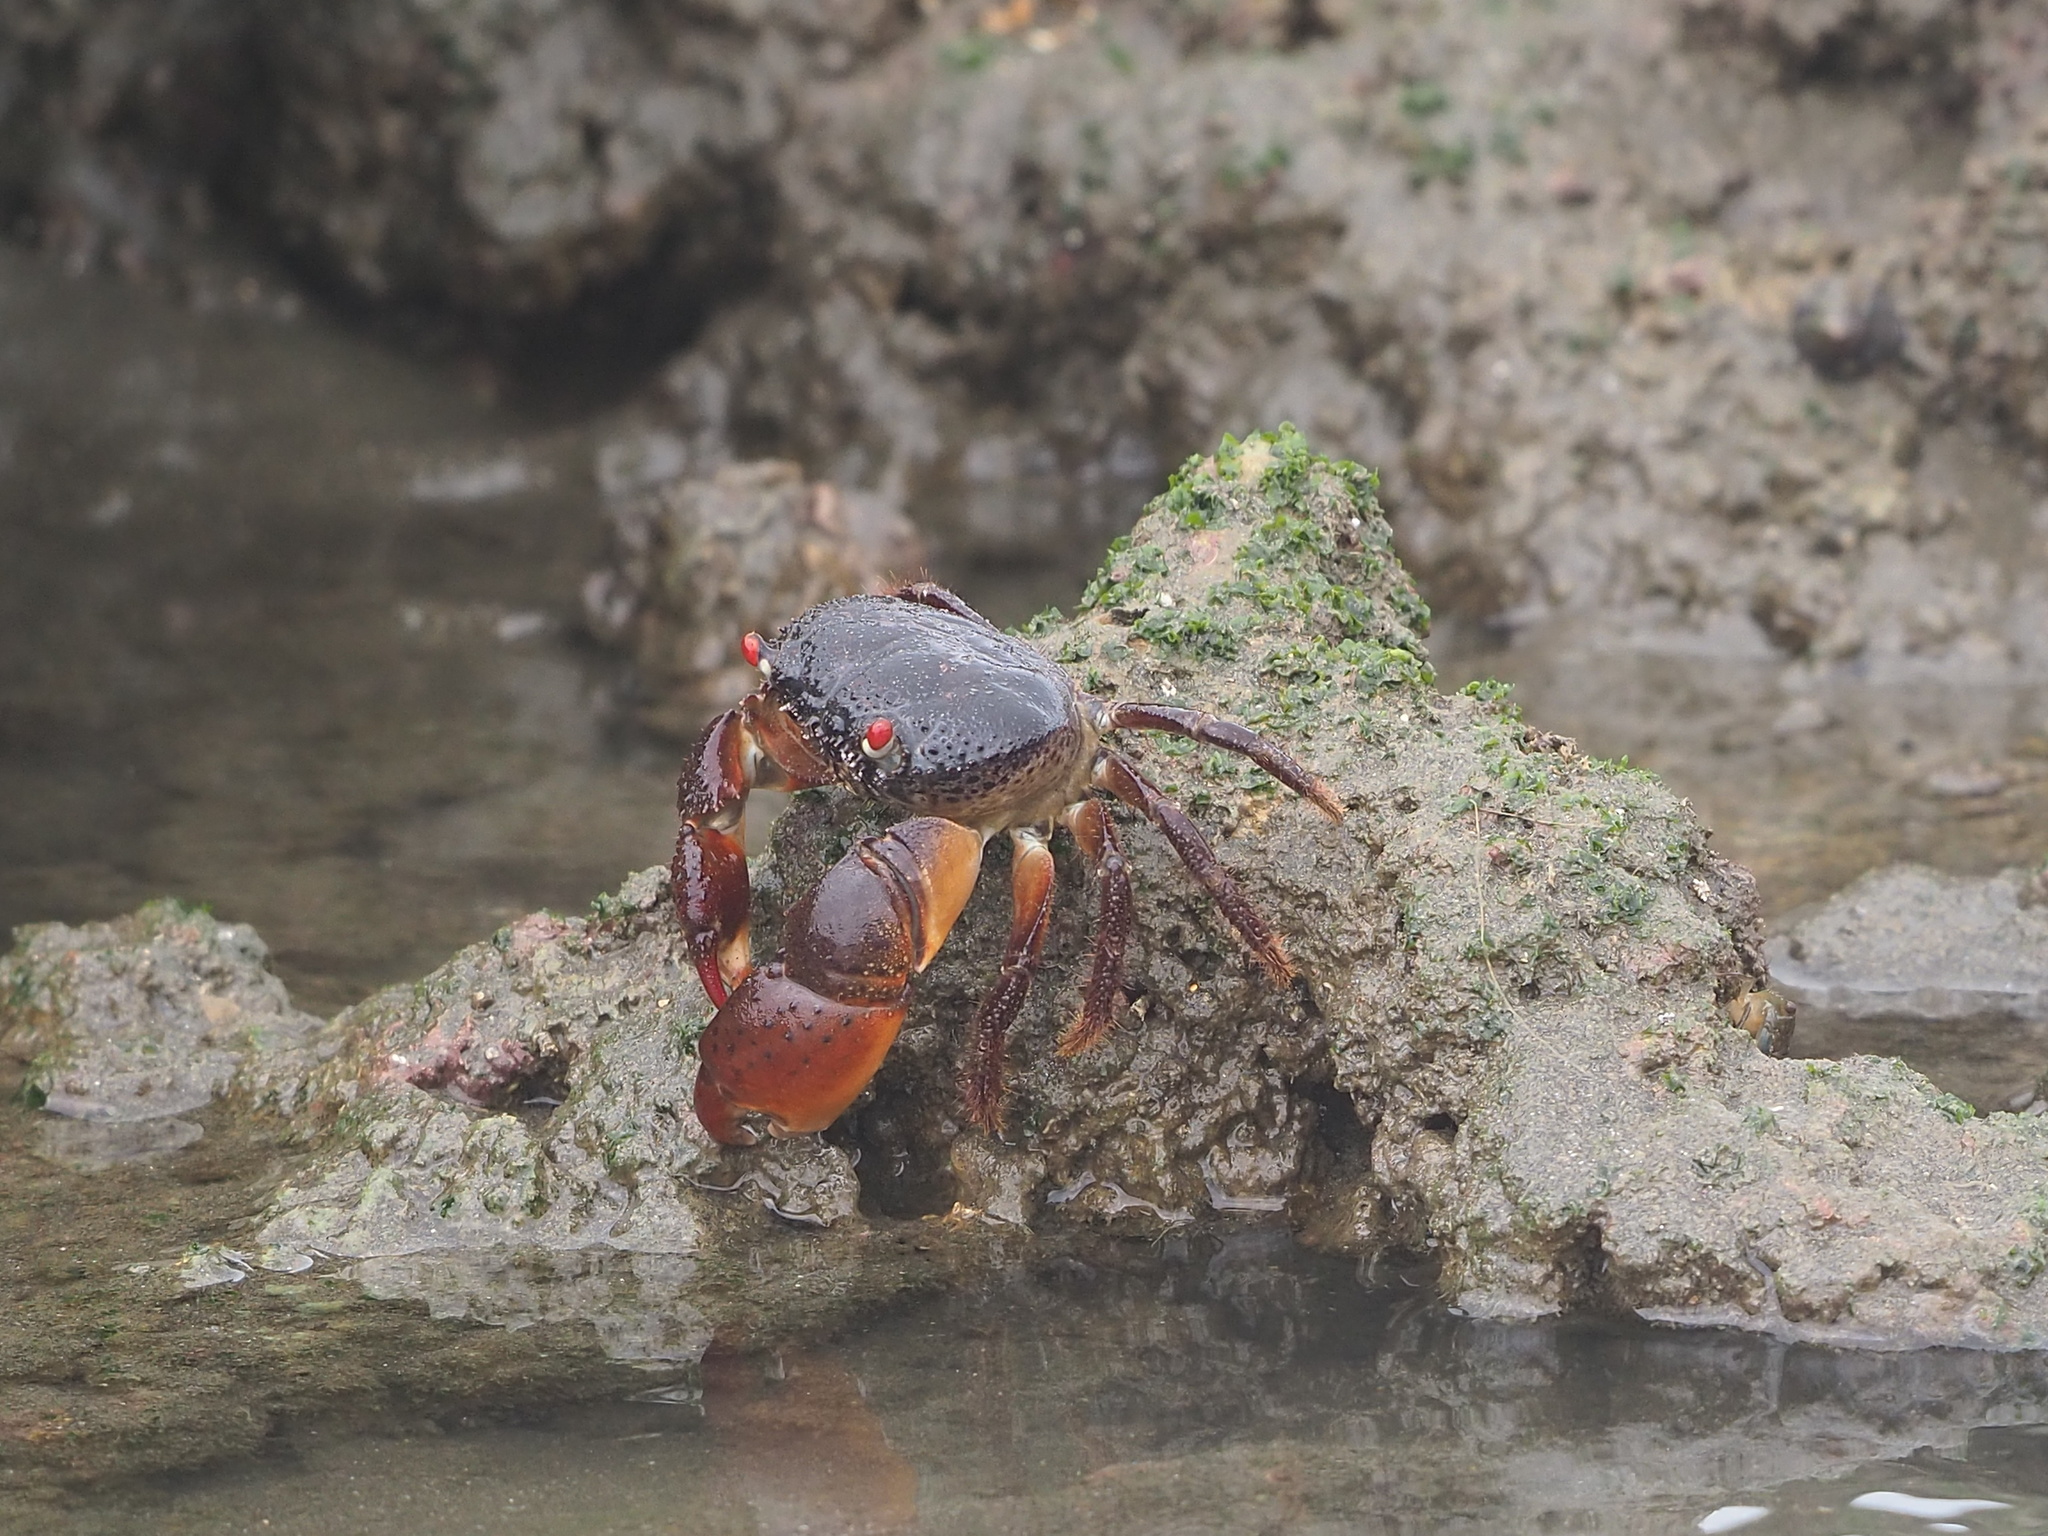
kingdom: Animalia
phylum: Arthropoda
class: Malacostraca
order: Decapoda
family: Eriphiidae
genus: Eriphia
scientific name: Eriphia ferox
